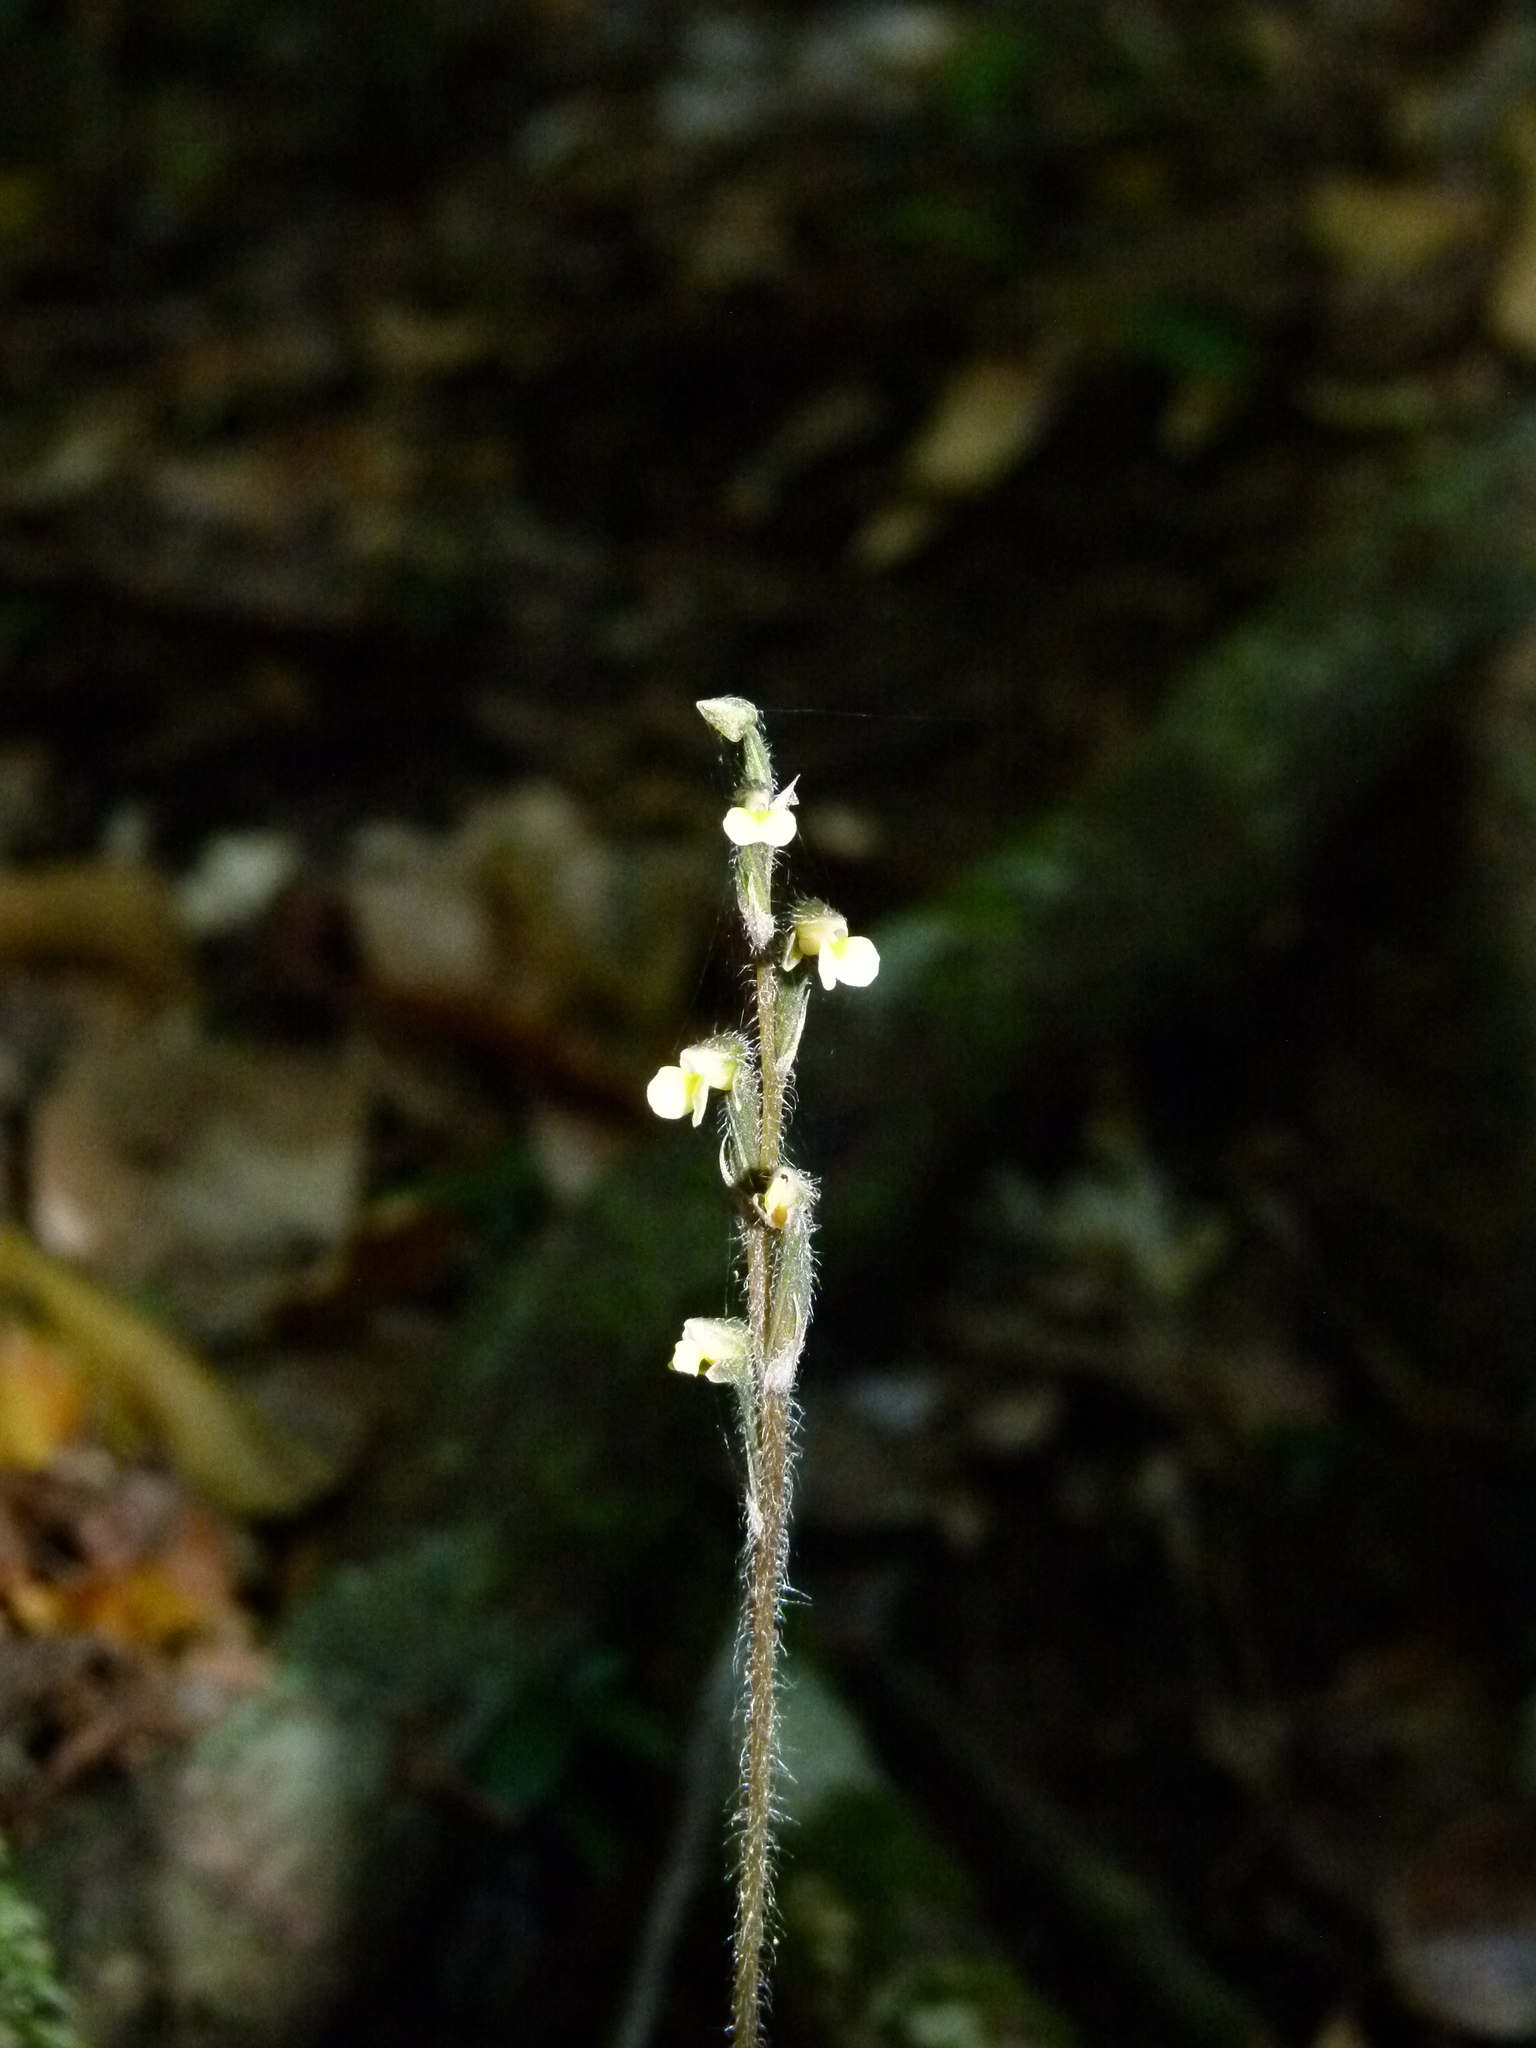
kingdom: Plantae
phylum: Tracheophyta
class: Liliopsida
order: Asparagales
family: Orchidaceae
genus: Zeuxine
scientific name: Zeuxine oblonga
